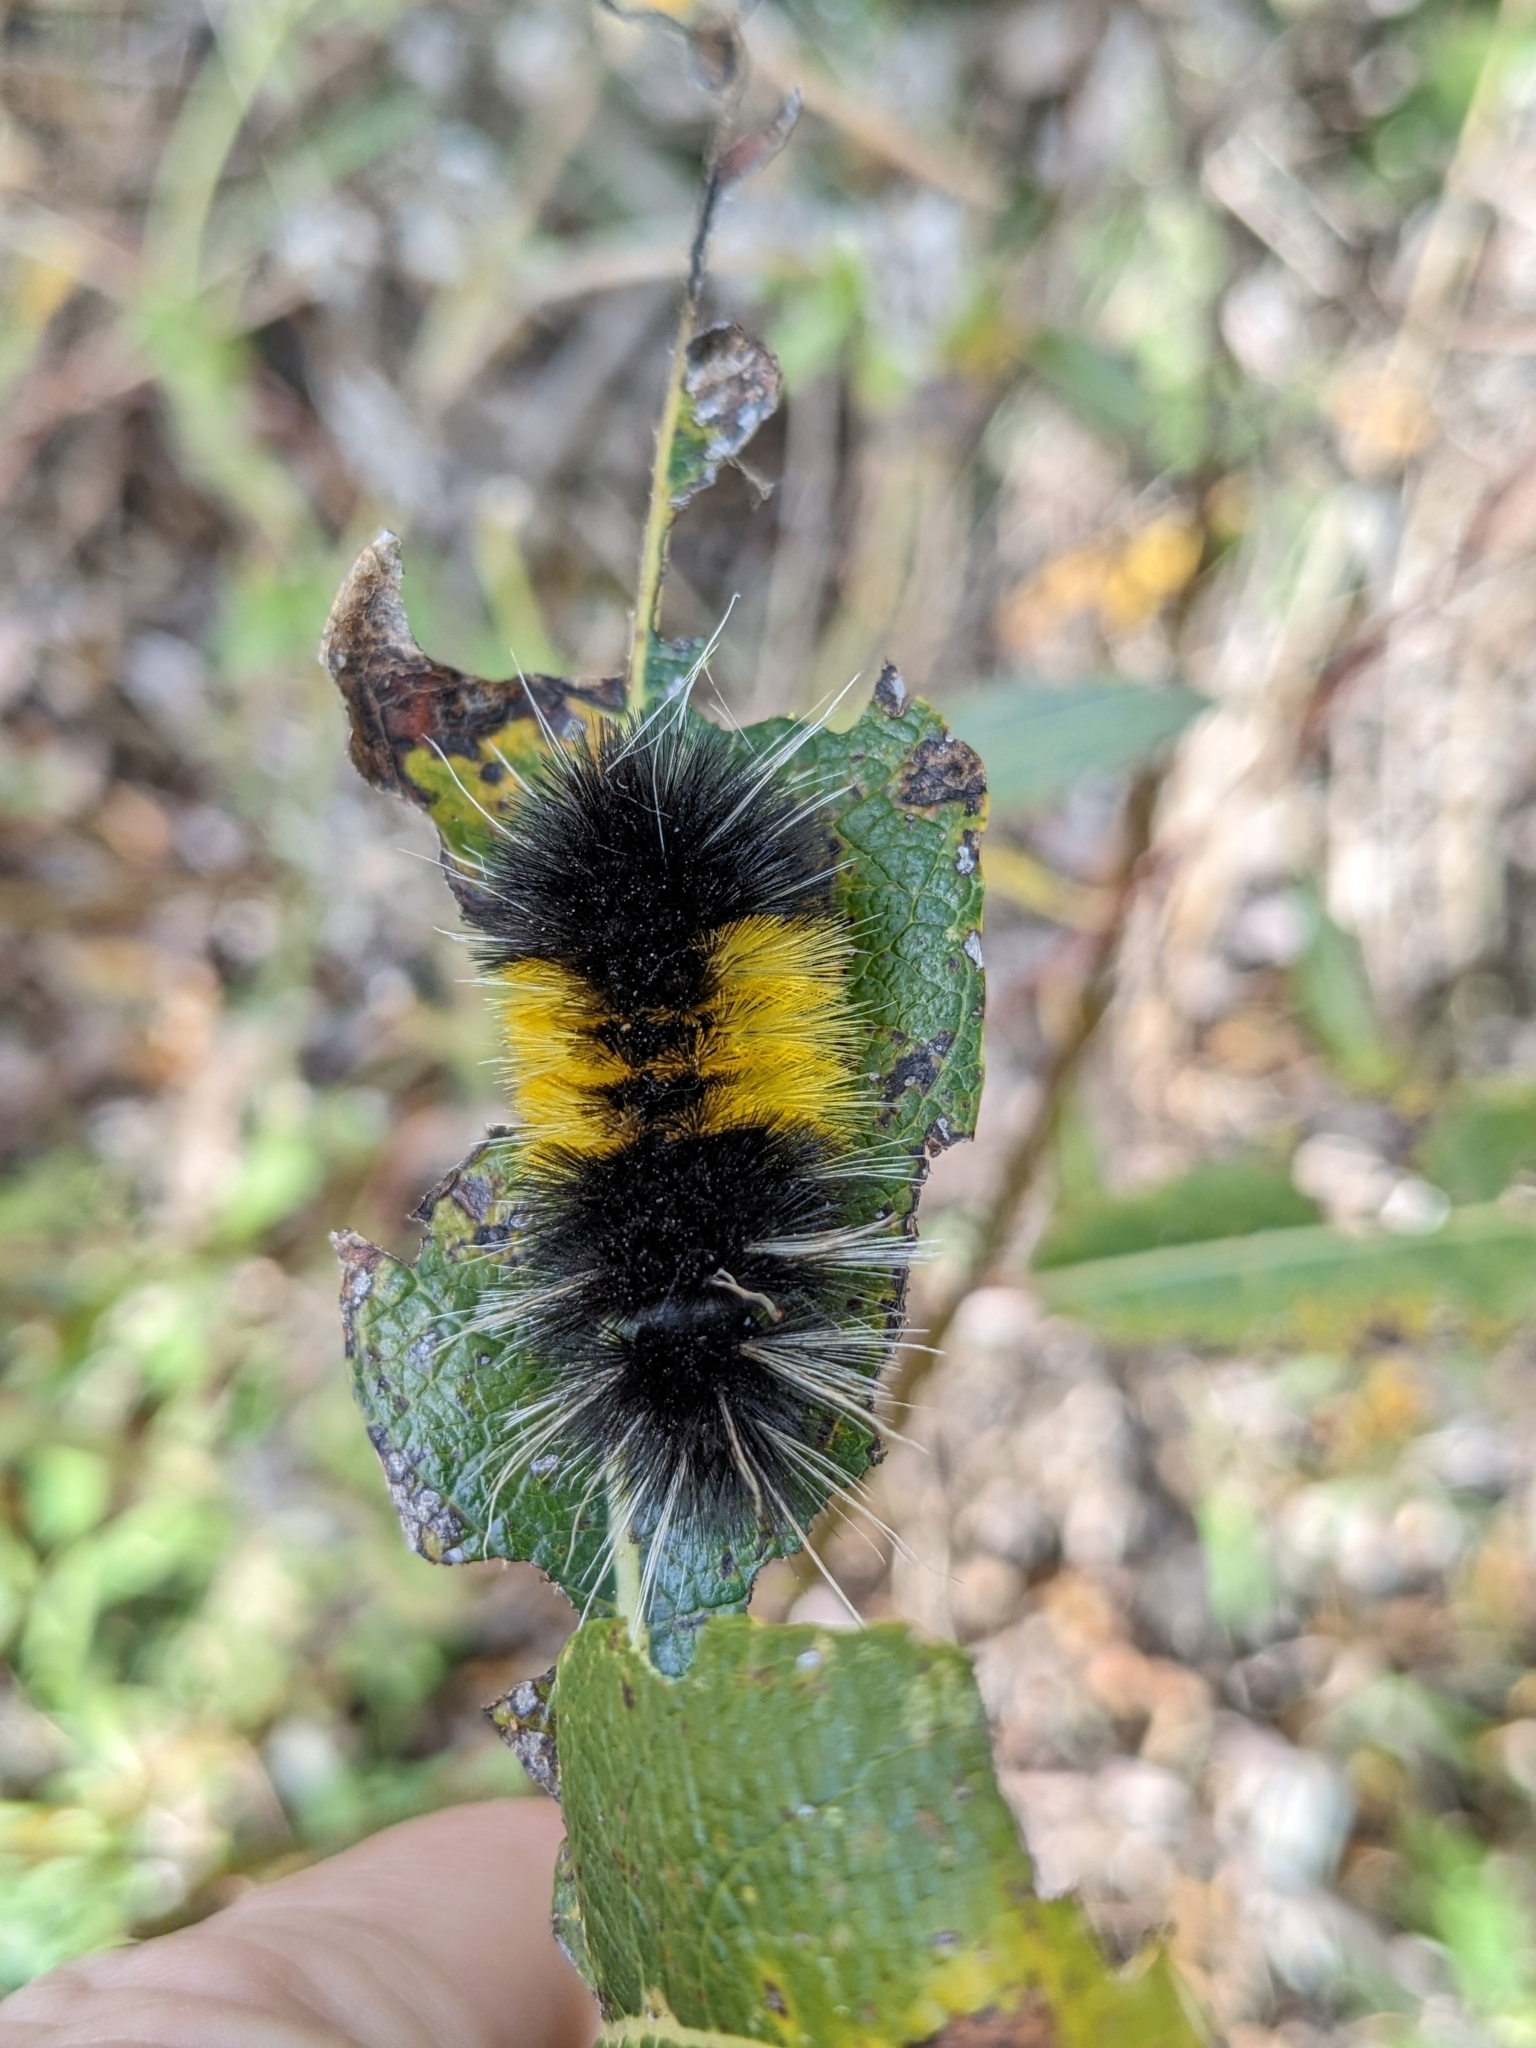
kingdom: Animalia
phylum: Arthropoda
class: Insecta
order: Lepidoptera
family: Erebidae
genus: Lophocampa
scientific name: Lophocampa maculata
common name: Spotted tussock moth
